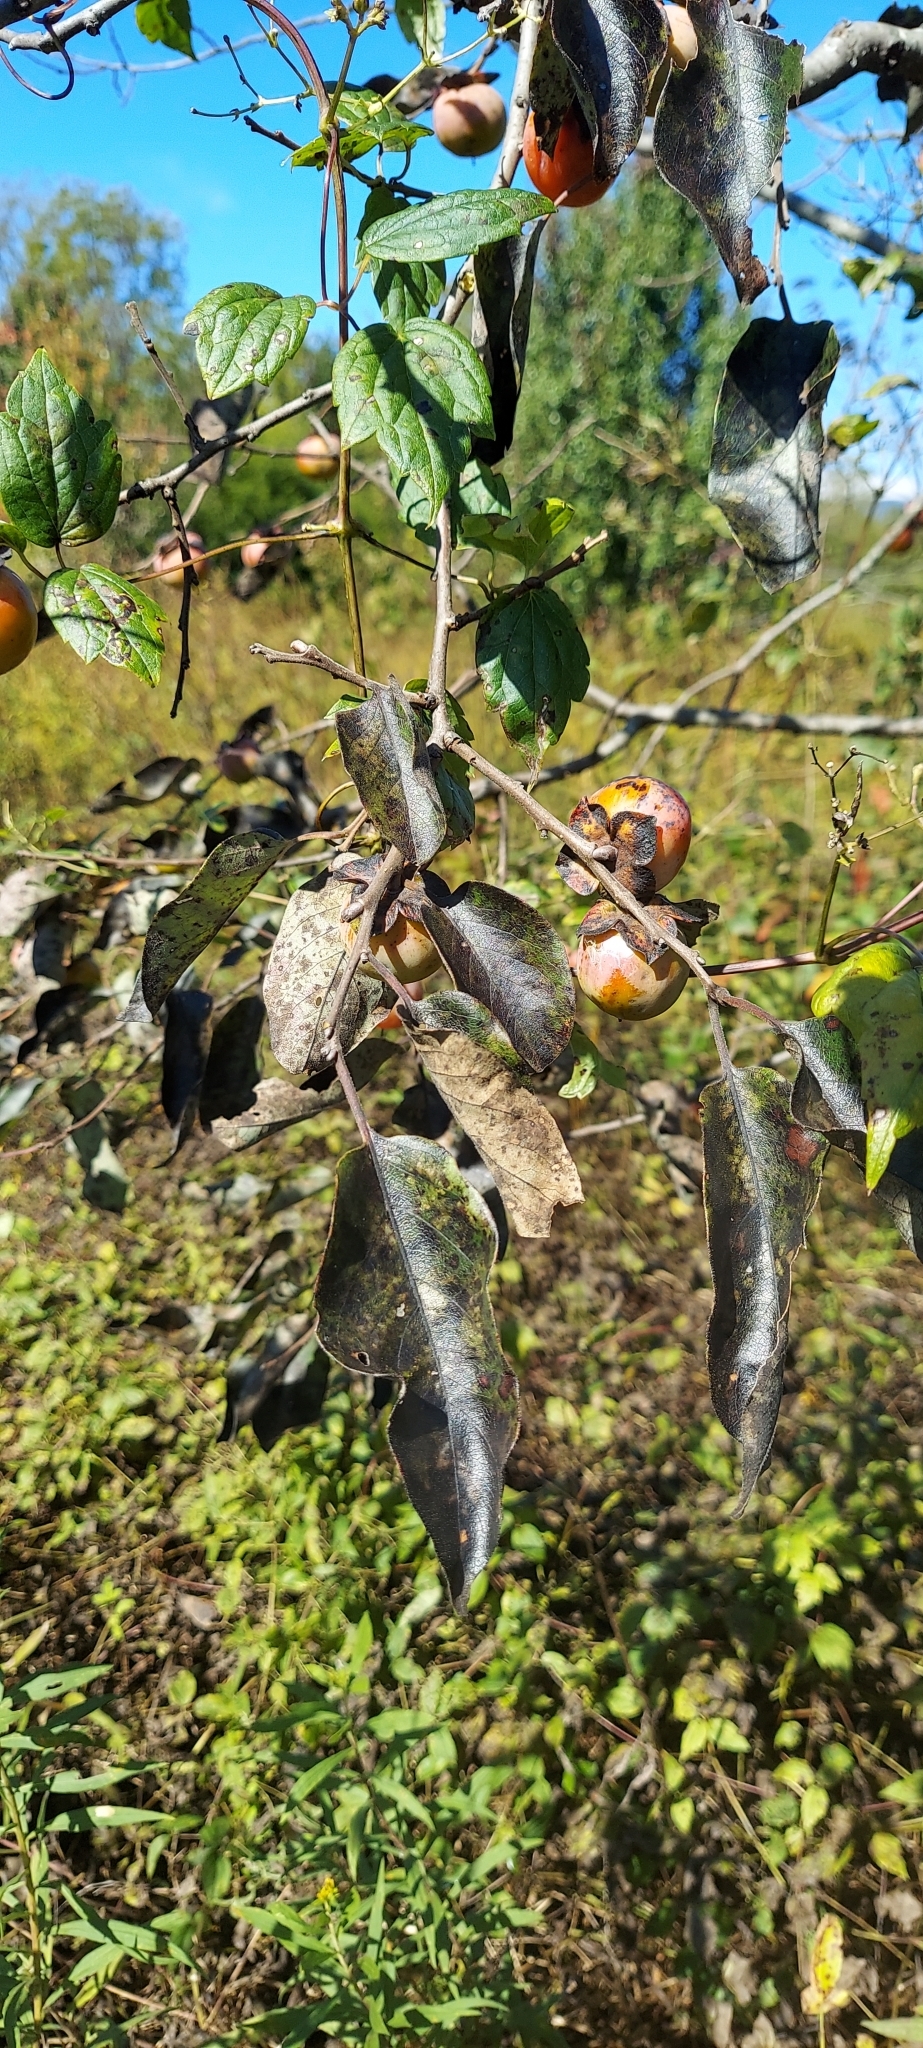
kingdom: Plantae
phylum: Tracheophyta
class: Magnoliopsida
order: Ericales
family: Ebenaceae
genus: Diospyros
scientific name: Diospyros virginiana
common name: Persimmon
